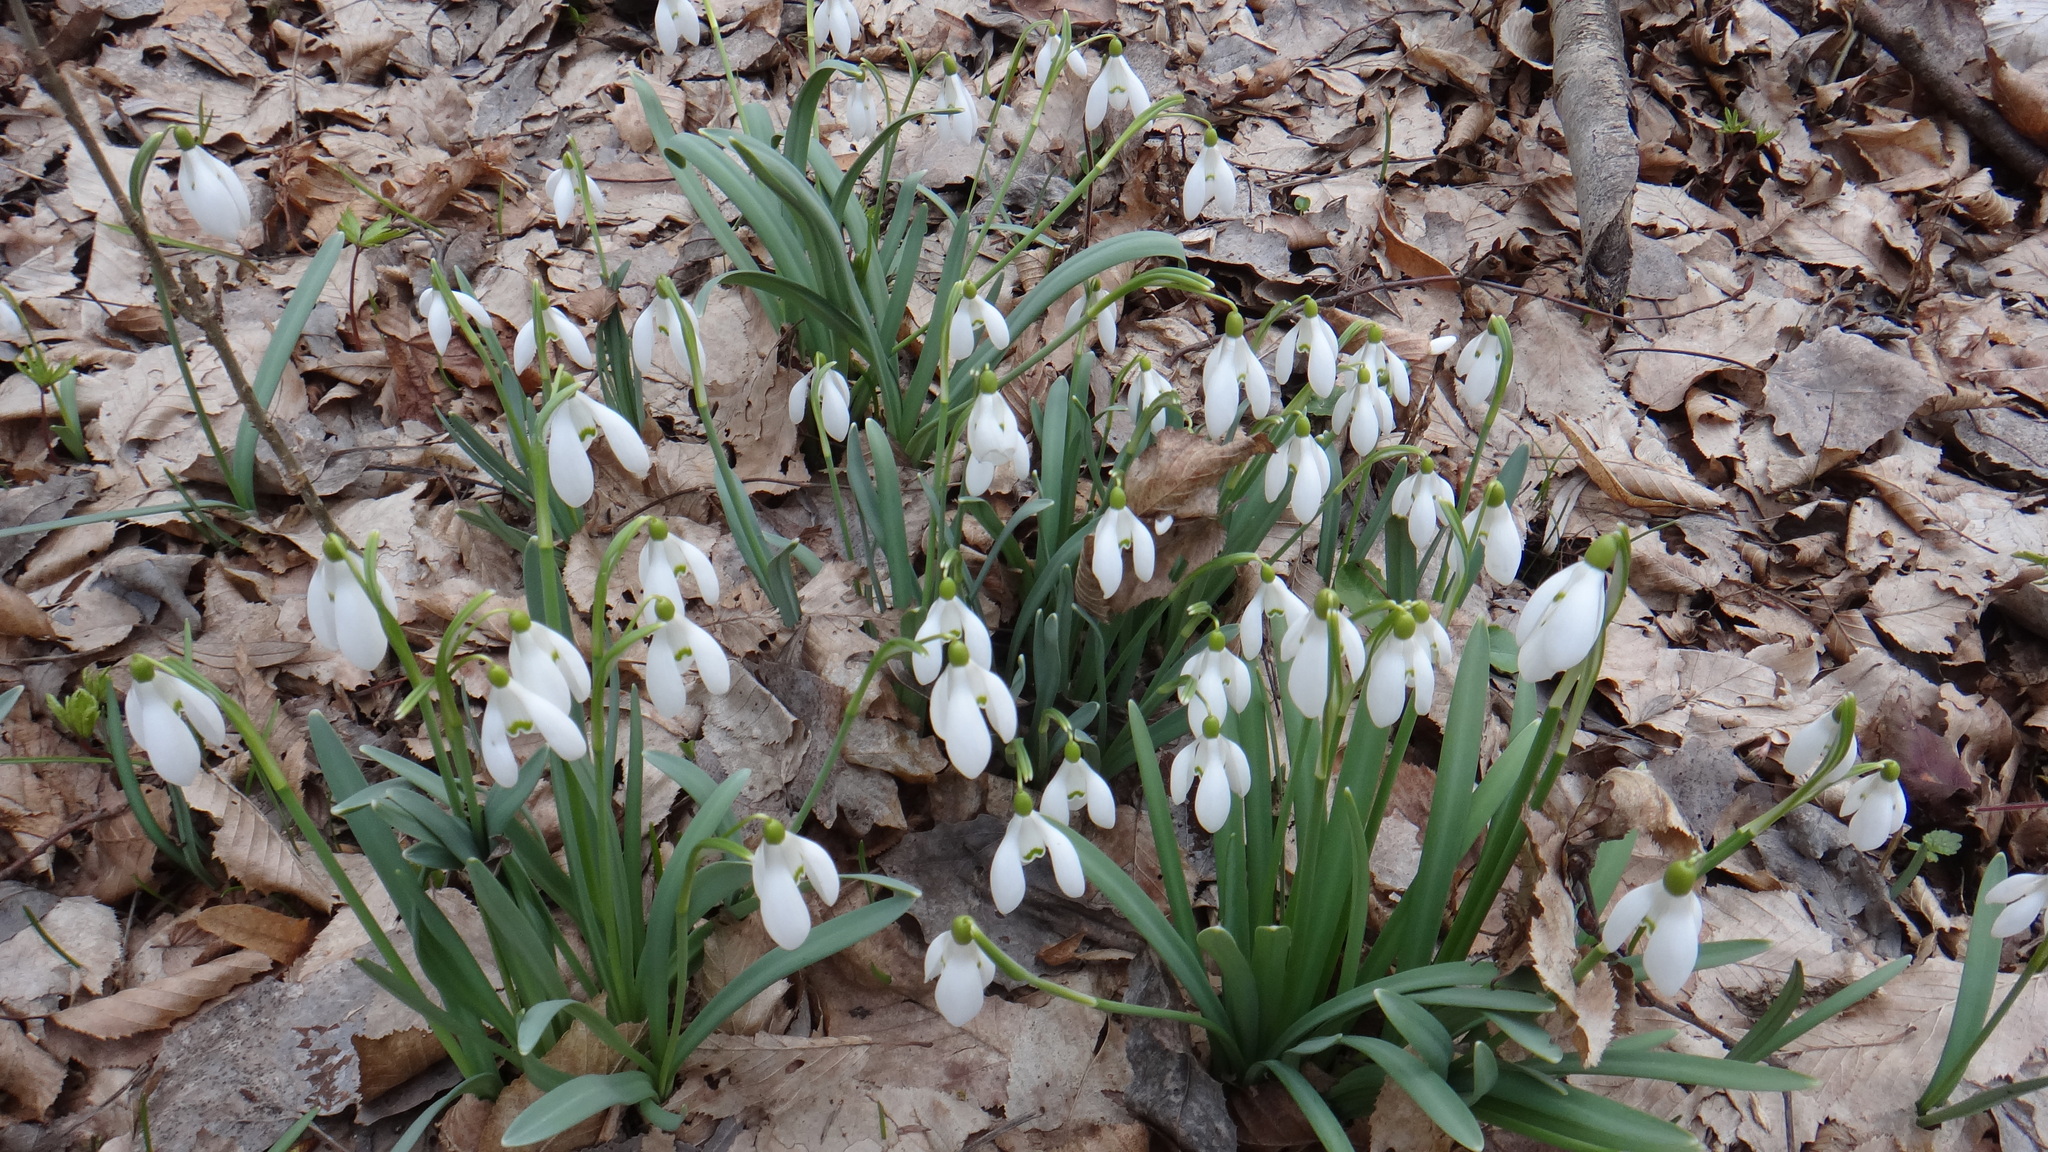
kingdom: Plantae
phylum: Tracheophyta
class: Liliopsida
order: Asparagales
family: Amaryllidaceae
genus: Galanthus
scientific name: Galanthus nivalis
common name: Snowdrop
